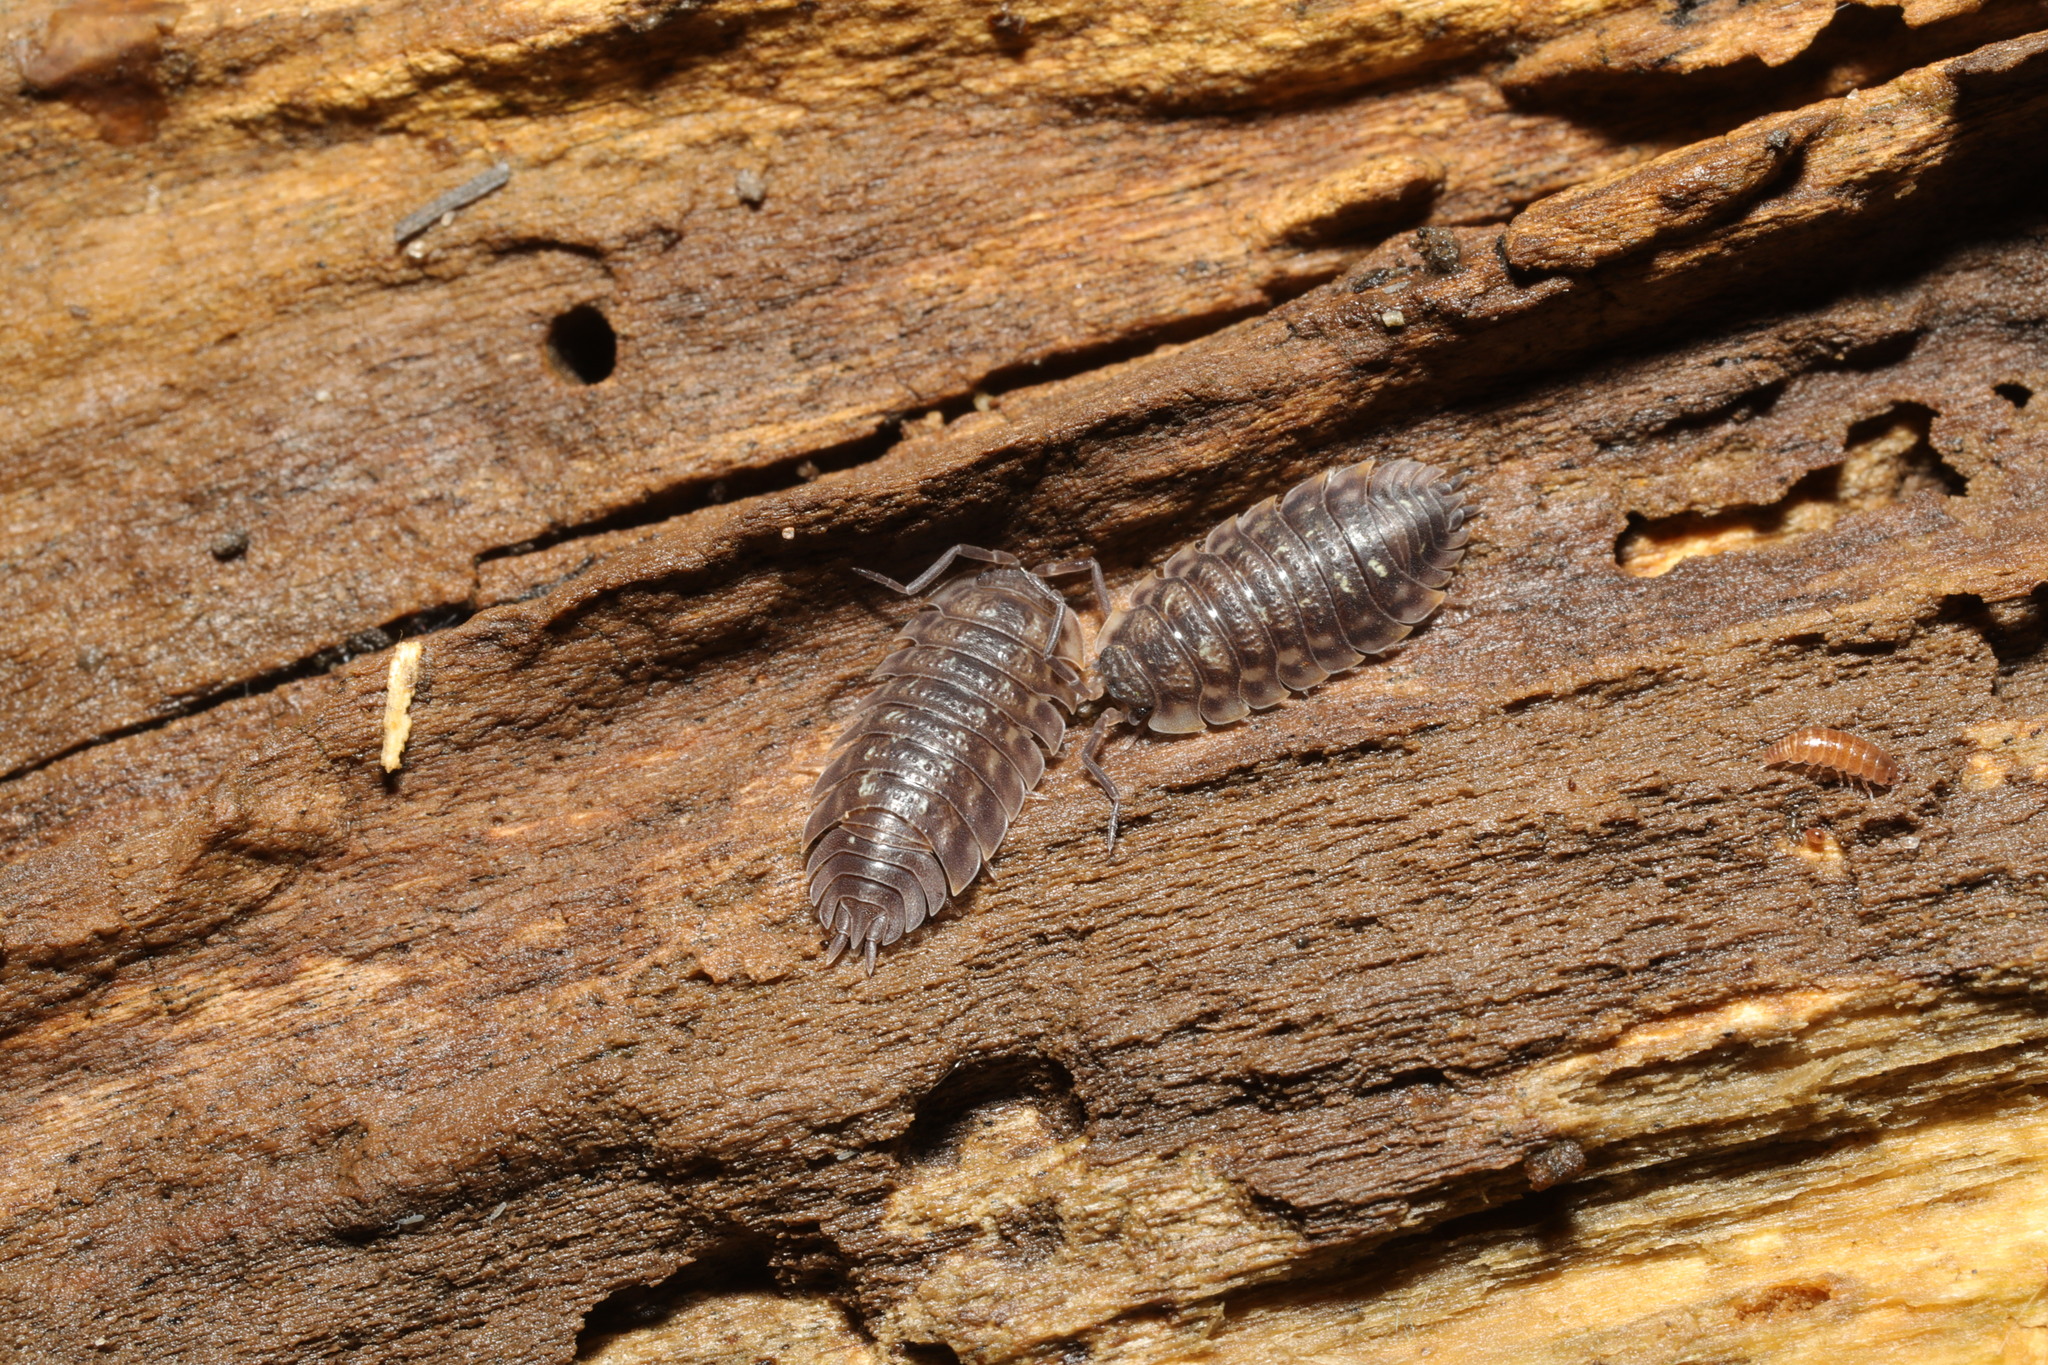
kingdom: Animalia
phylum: Arthropoda
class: Malacostraca
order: Isopoda
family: Oniscidae
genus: Oniscus
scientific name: Oniscus asellus
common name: Common shiny woodlouse
